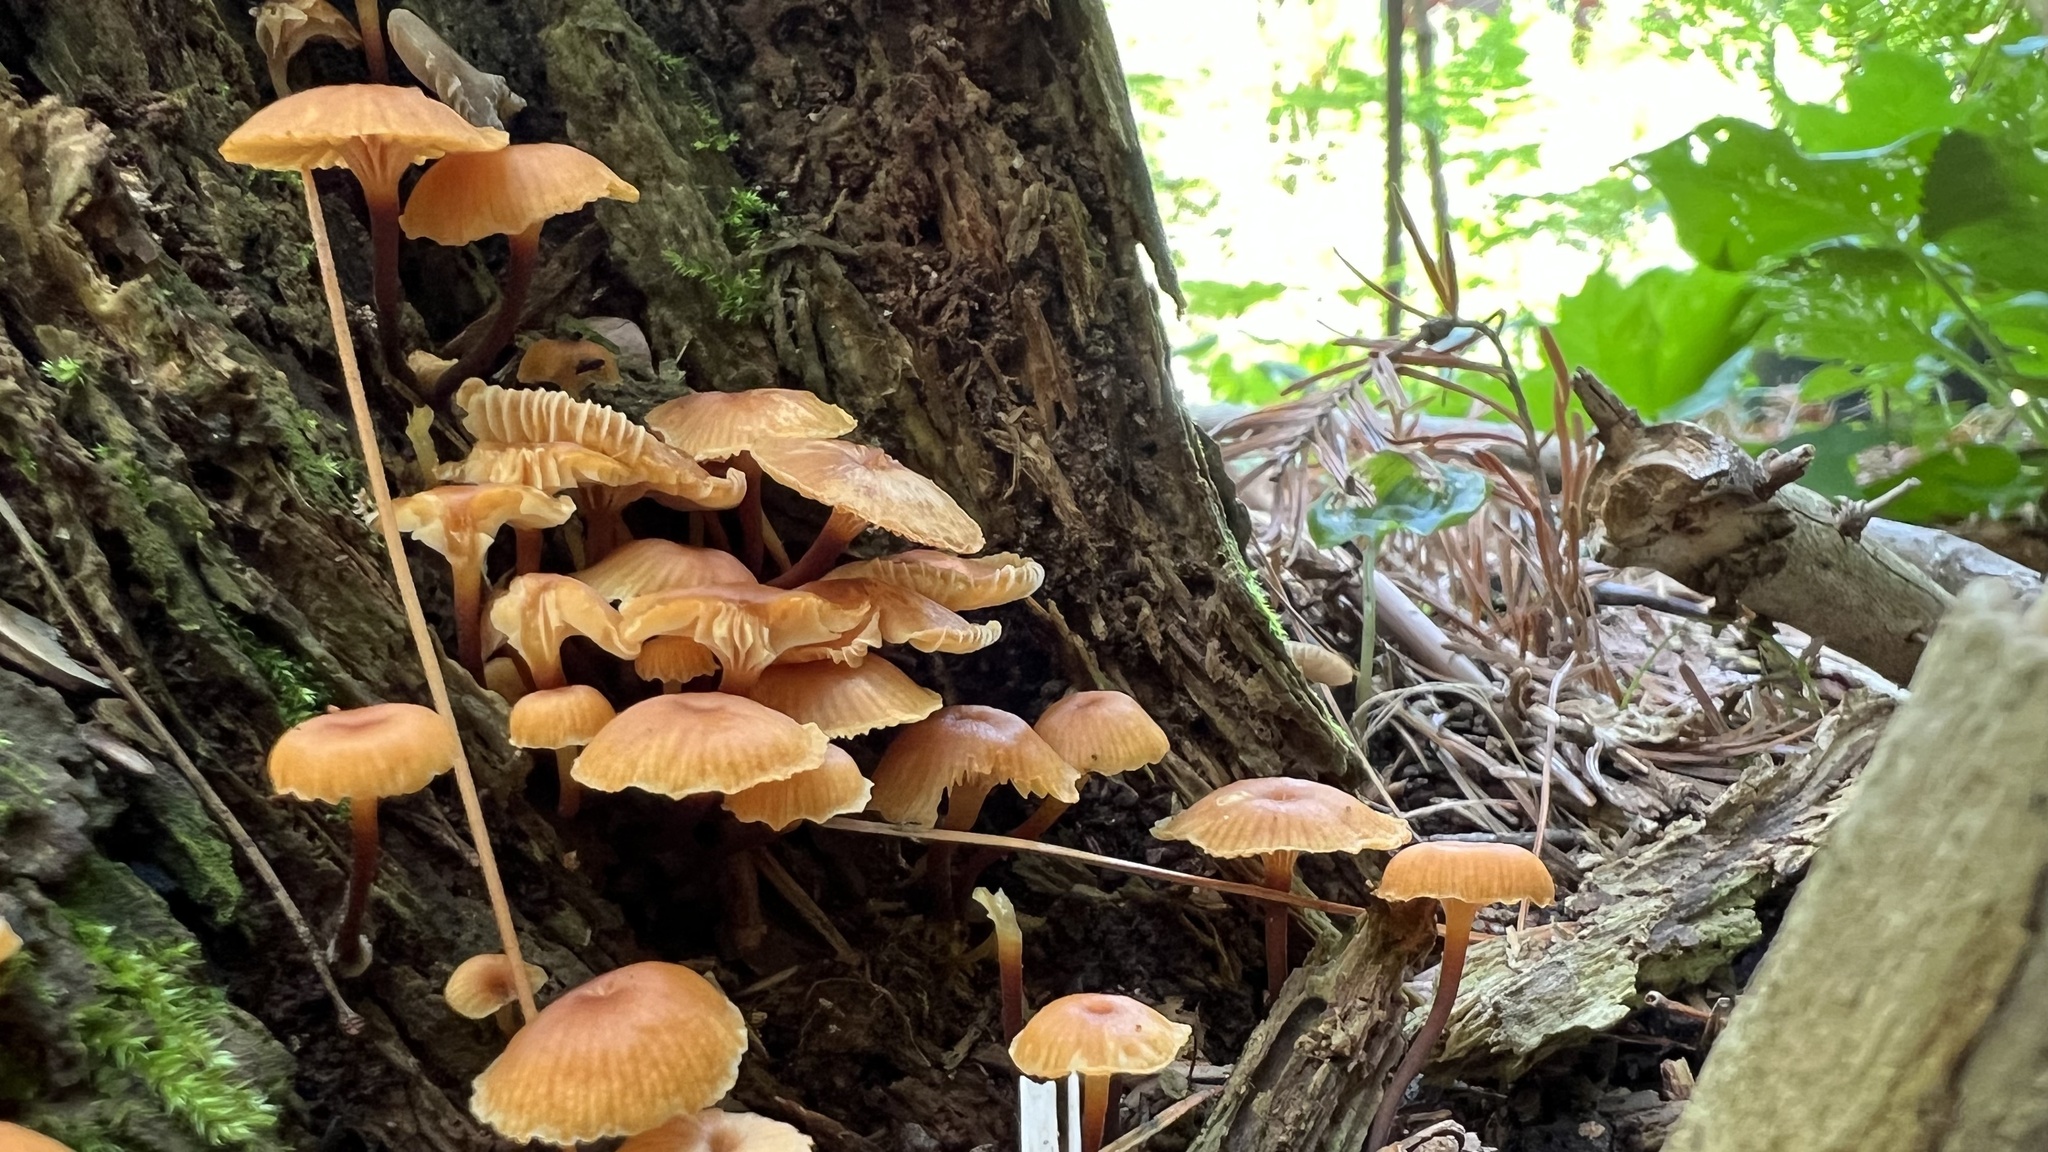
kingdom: Fungi
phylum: Basidiomycota
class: Agaricomycetes
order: Agaricales
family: Mycenaceae
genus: Xeromphalina
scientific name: Xeromphalina campanella
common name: Pinewood gingertail
